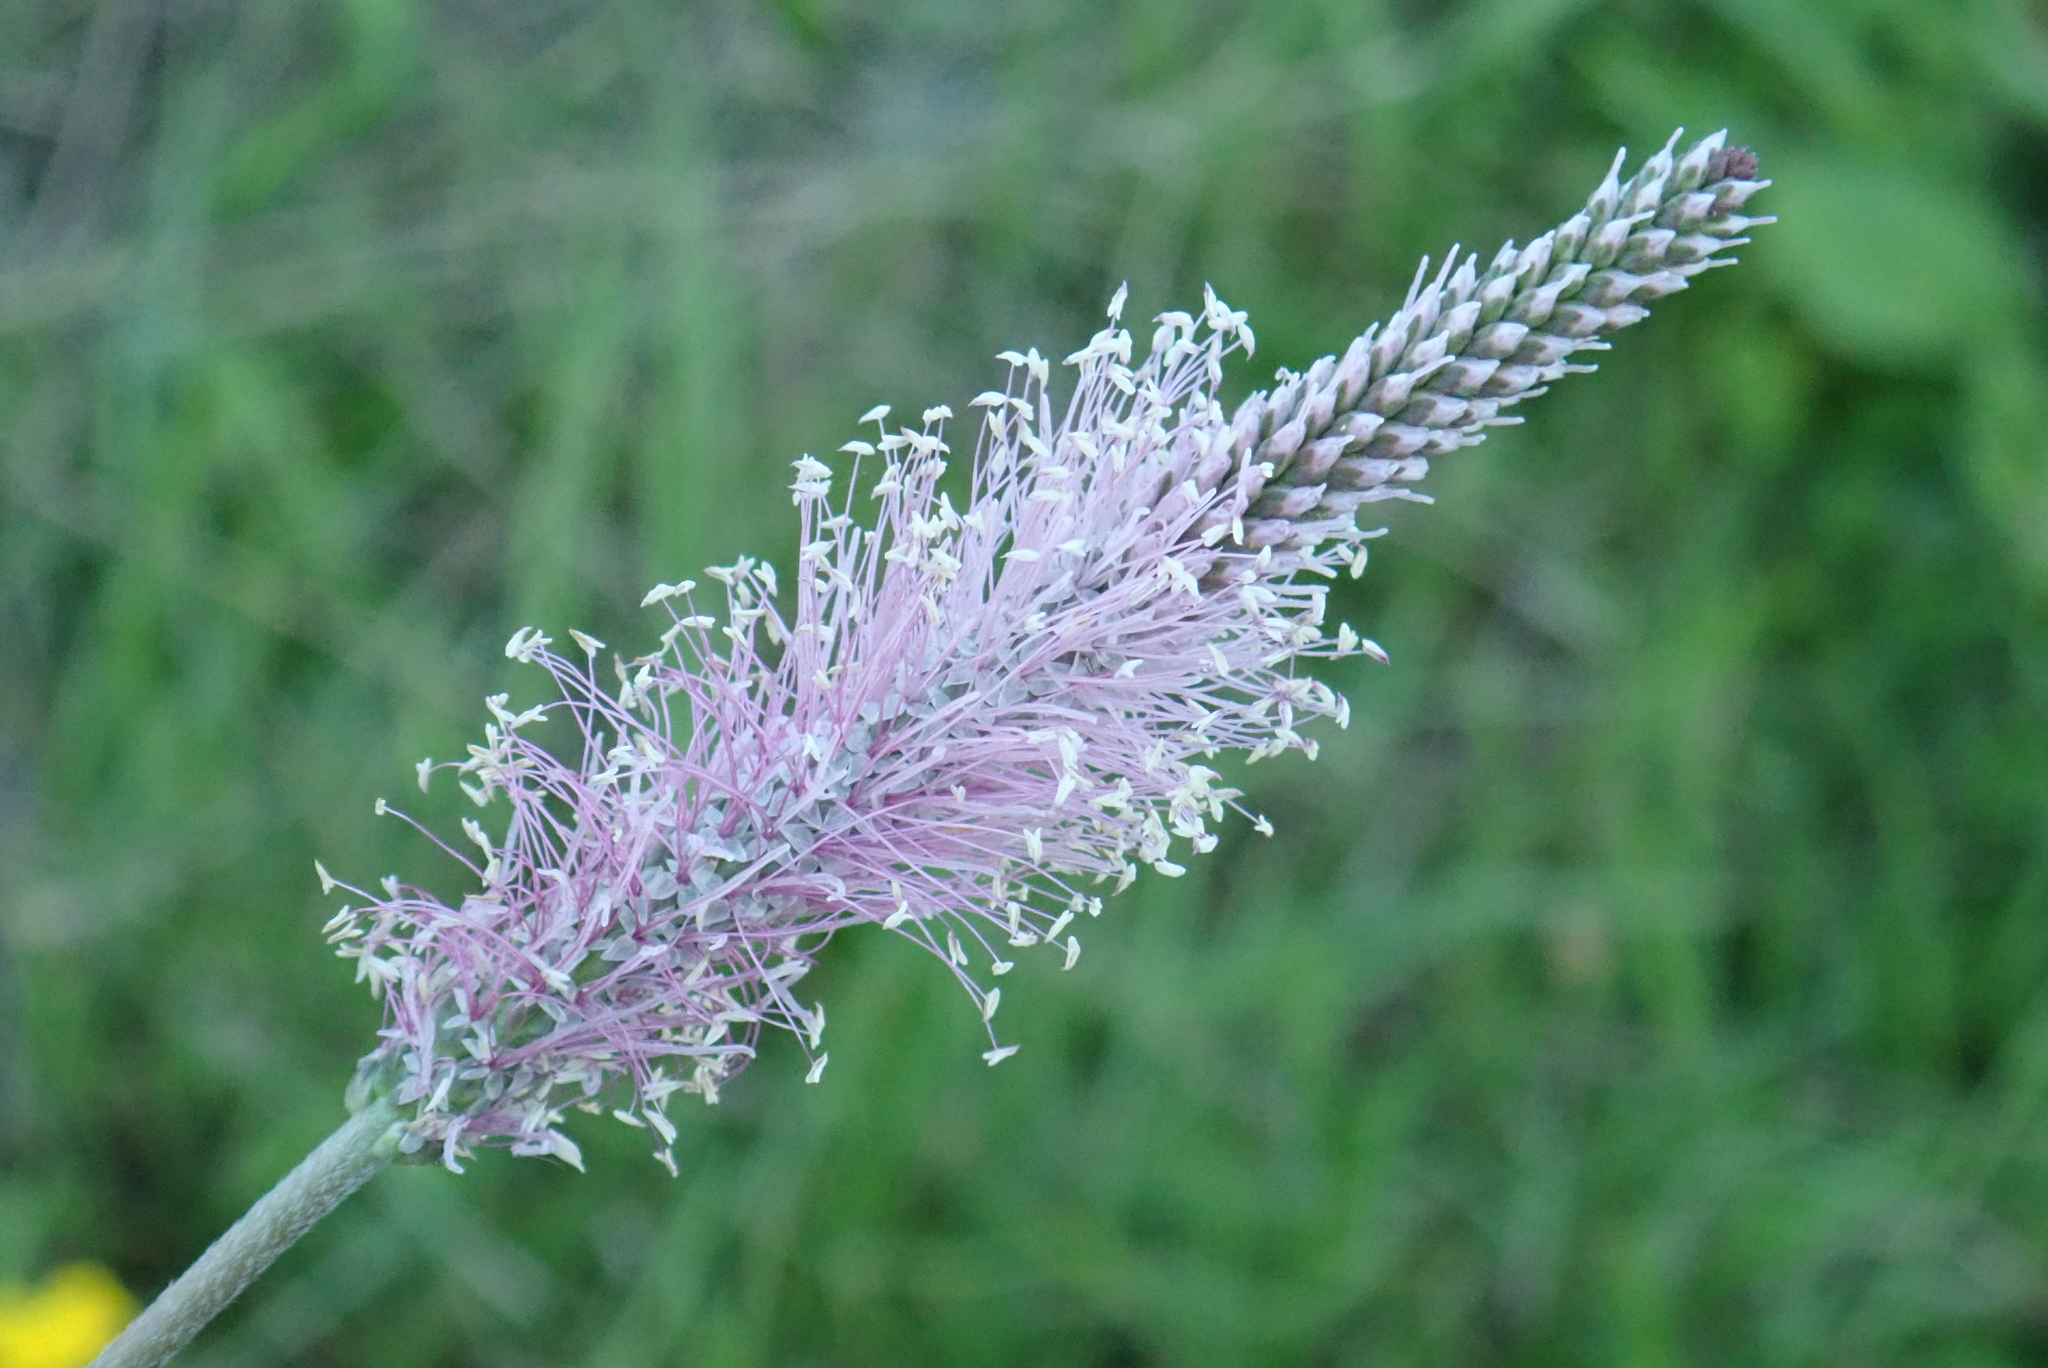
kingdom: Plantae
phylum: Tracheophyta
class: Magnoliopsida
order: Lamiales
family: Plantaginaceae
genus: Plantago
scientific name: Plantago media
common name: Hoary plantain
